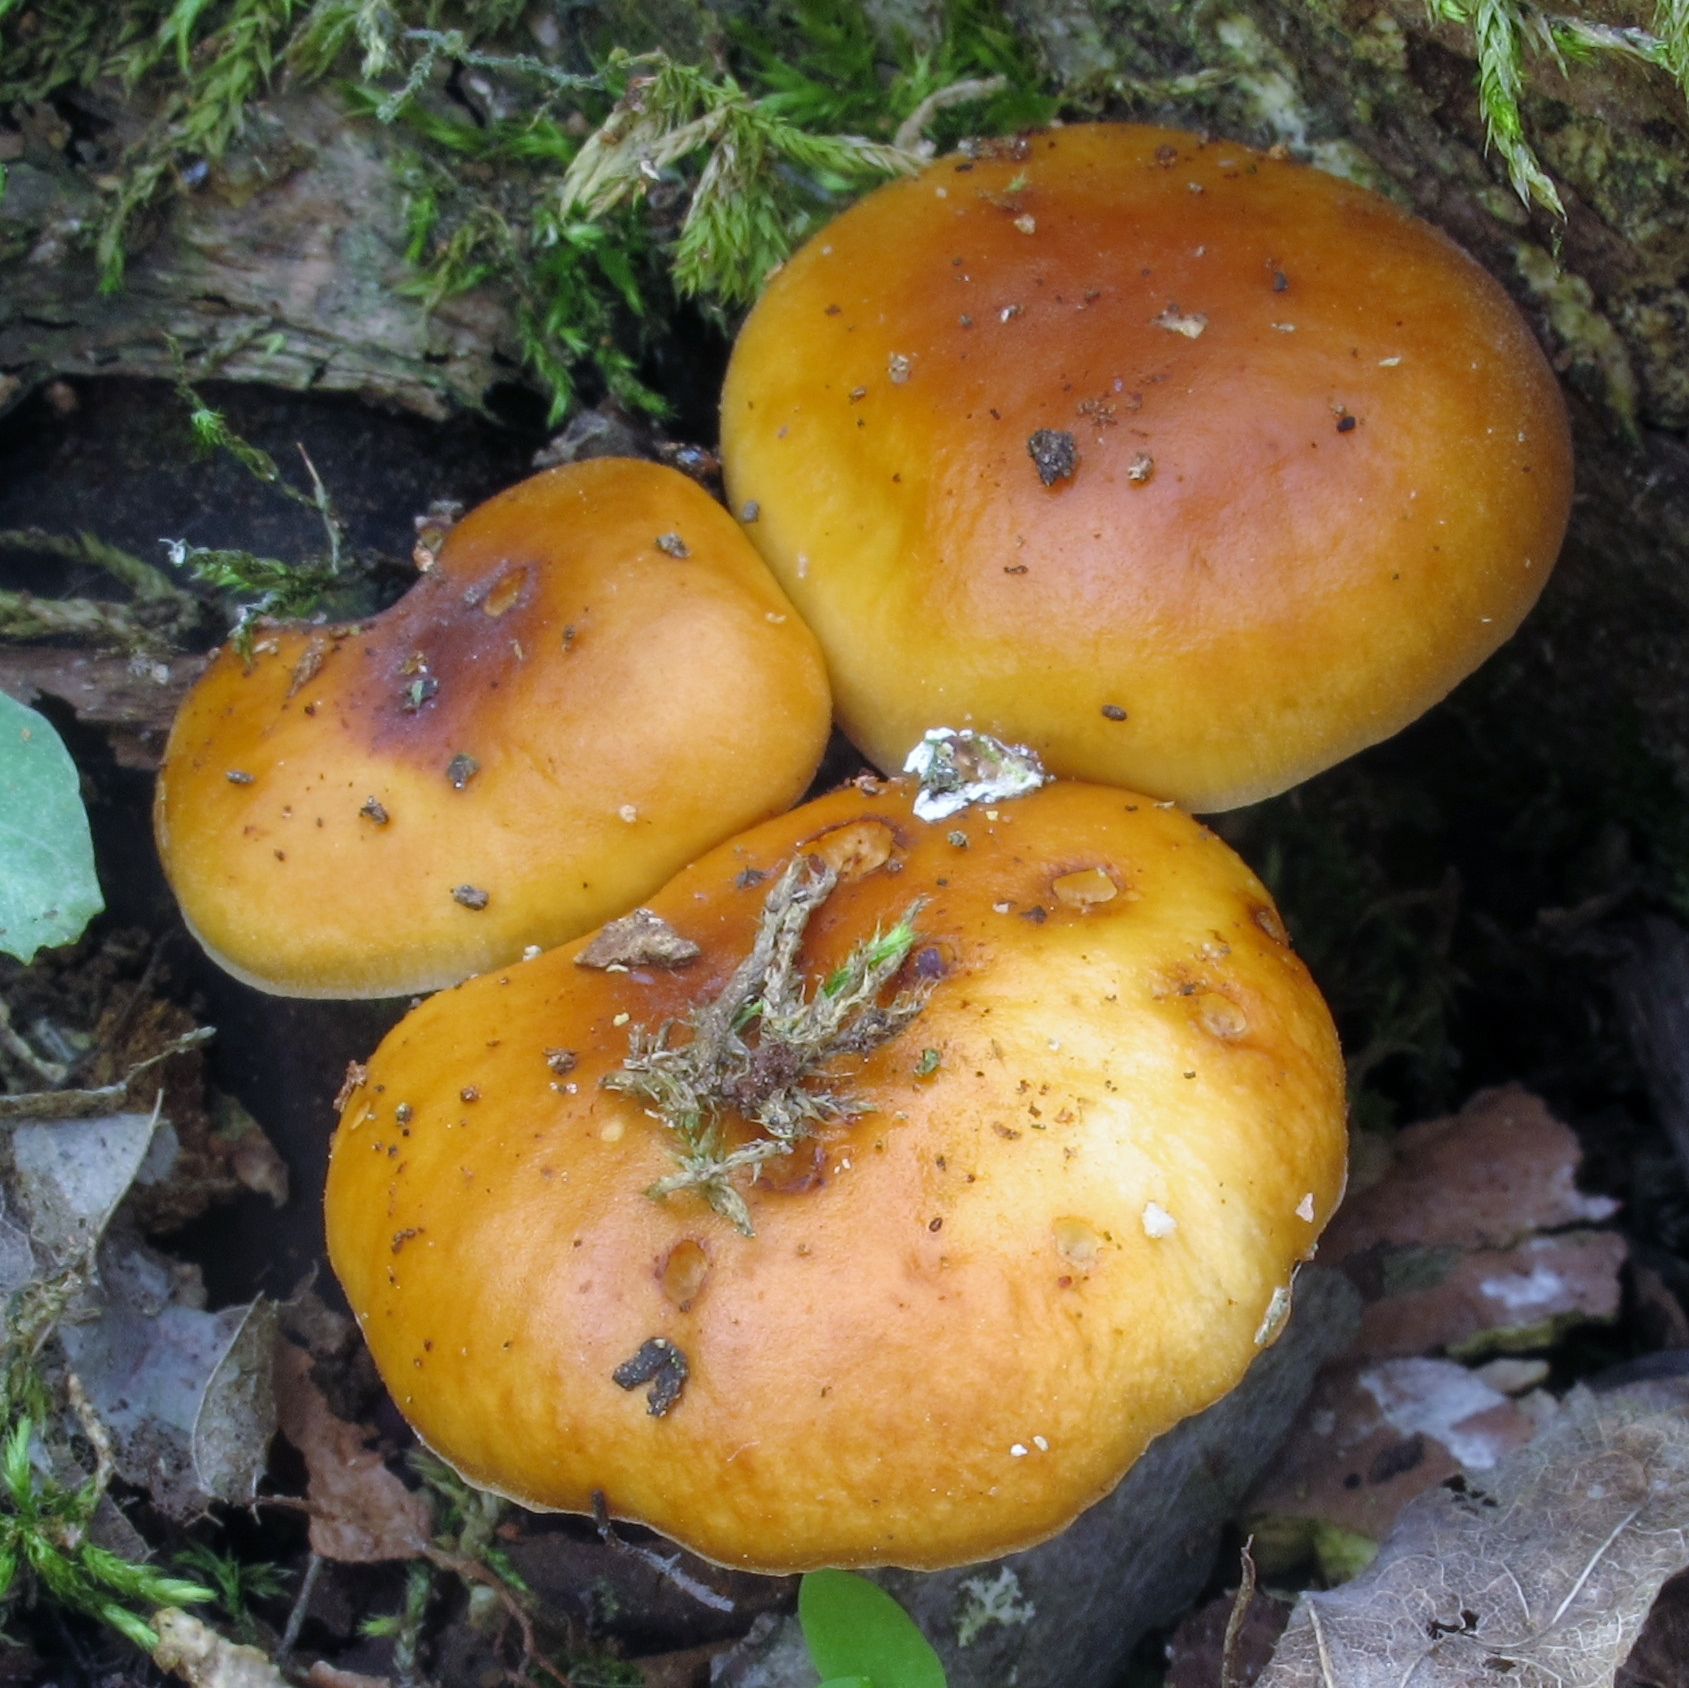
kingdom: Fungi
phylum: Basidiomycota
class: Agaricomycetes
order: Agaricales
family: Physalacriaceae
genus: Flammulina
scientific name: Flammulina velutipes
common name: Velvet shank
